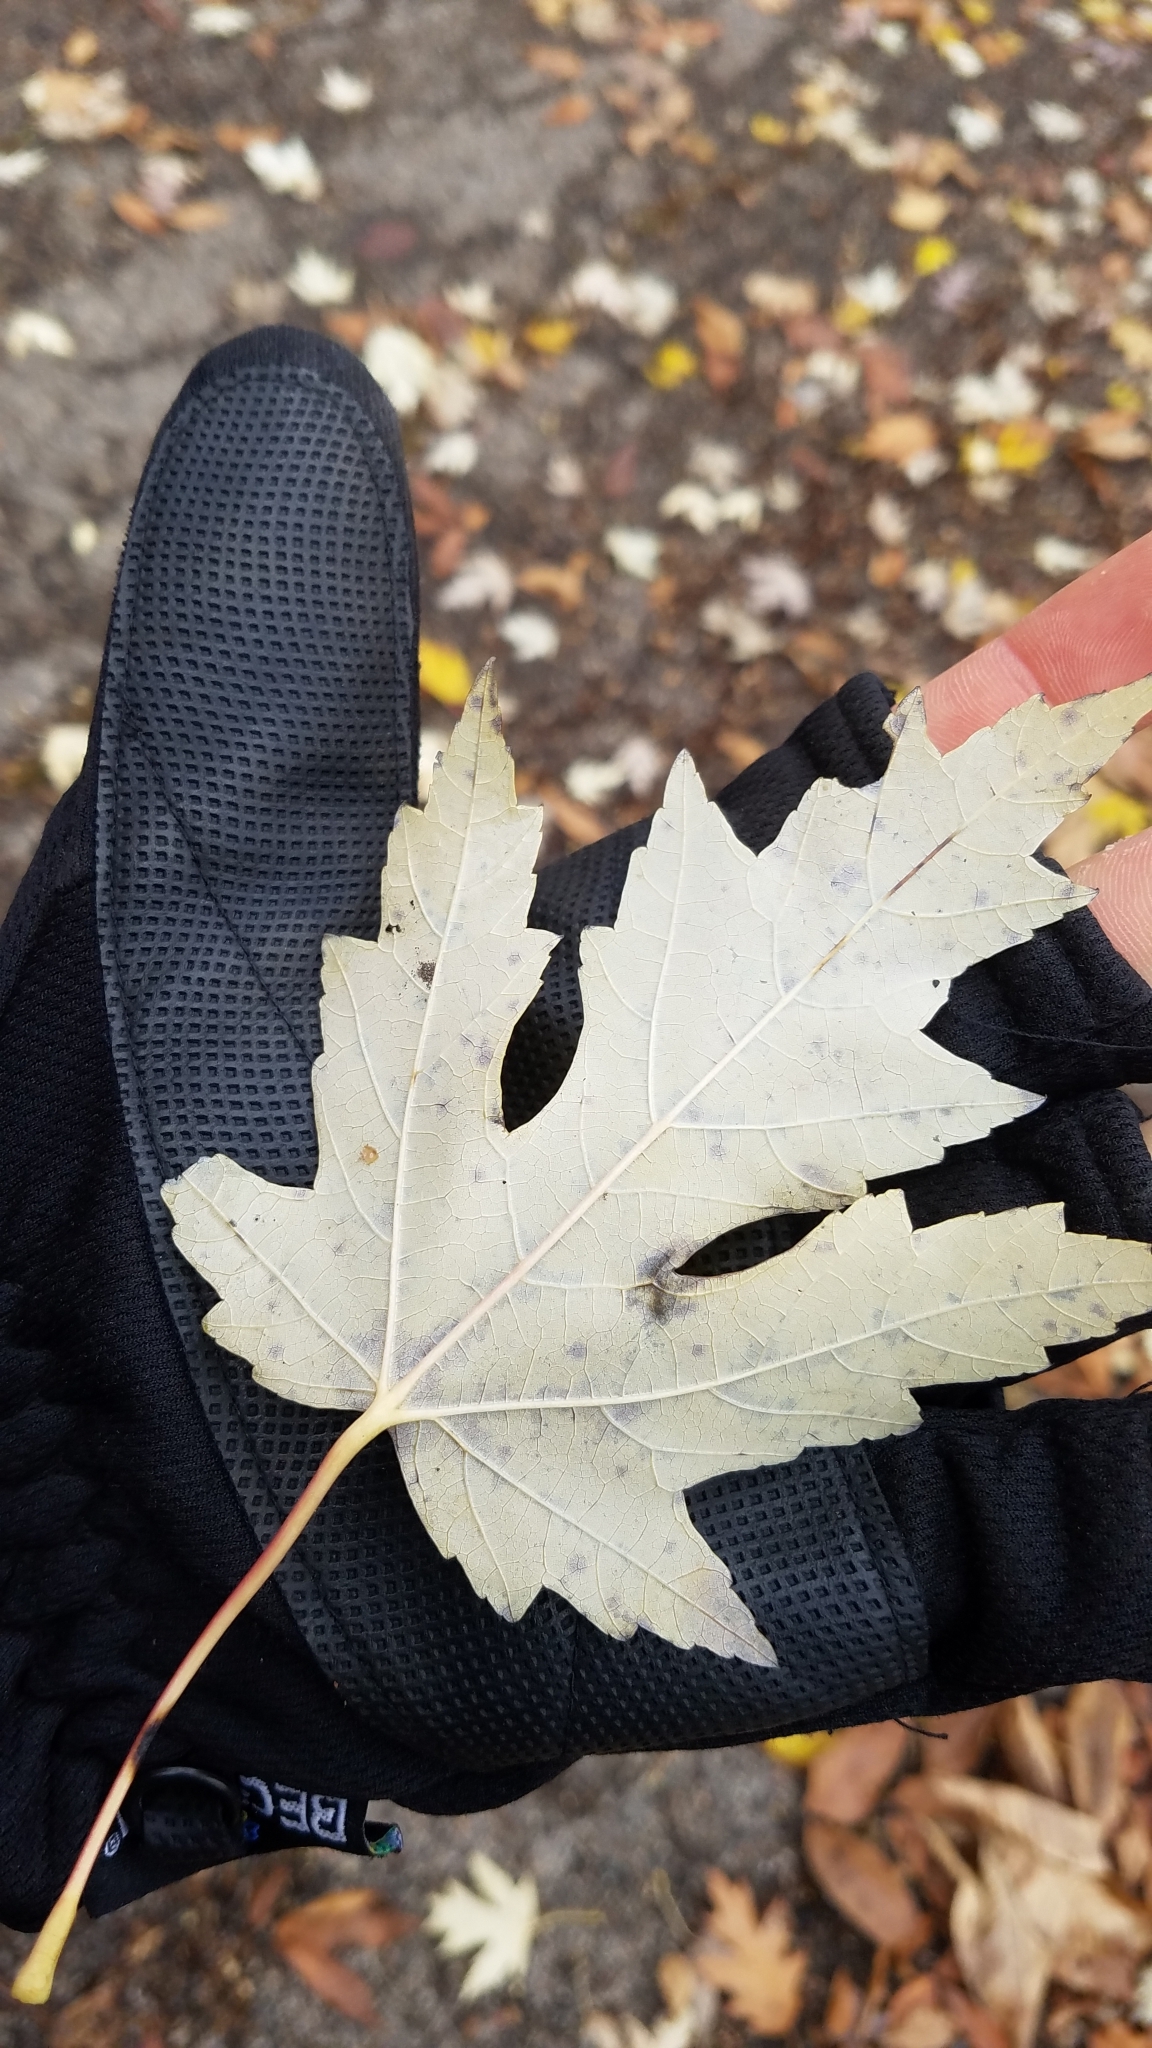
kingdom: Plantae
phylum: Tracheophyta
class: Magnoliopsida
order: Sapindales
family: Sapindaceae
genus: Acer
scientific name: Acer saccharinum
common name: Silver maple
